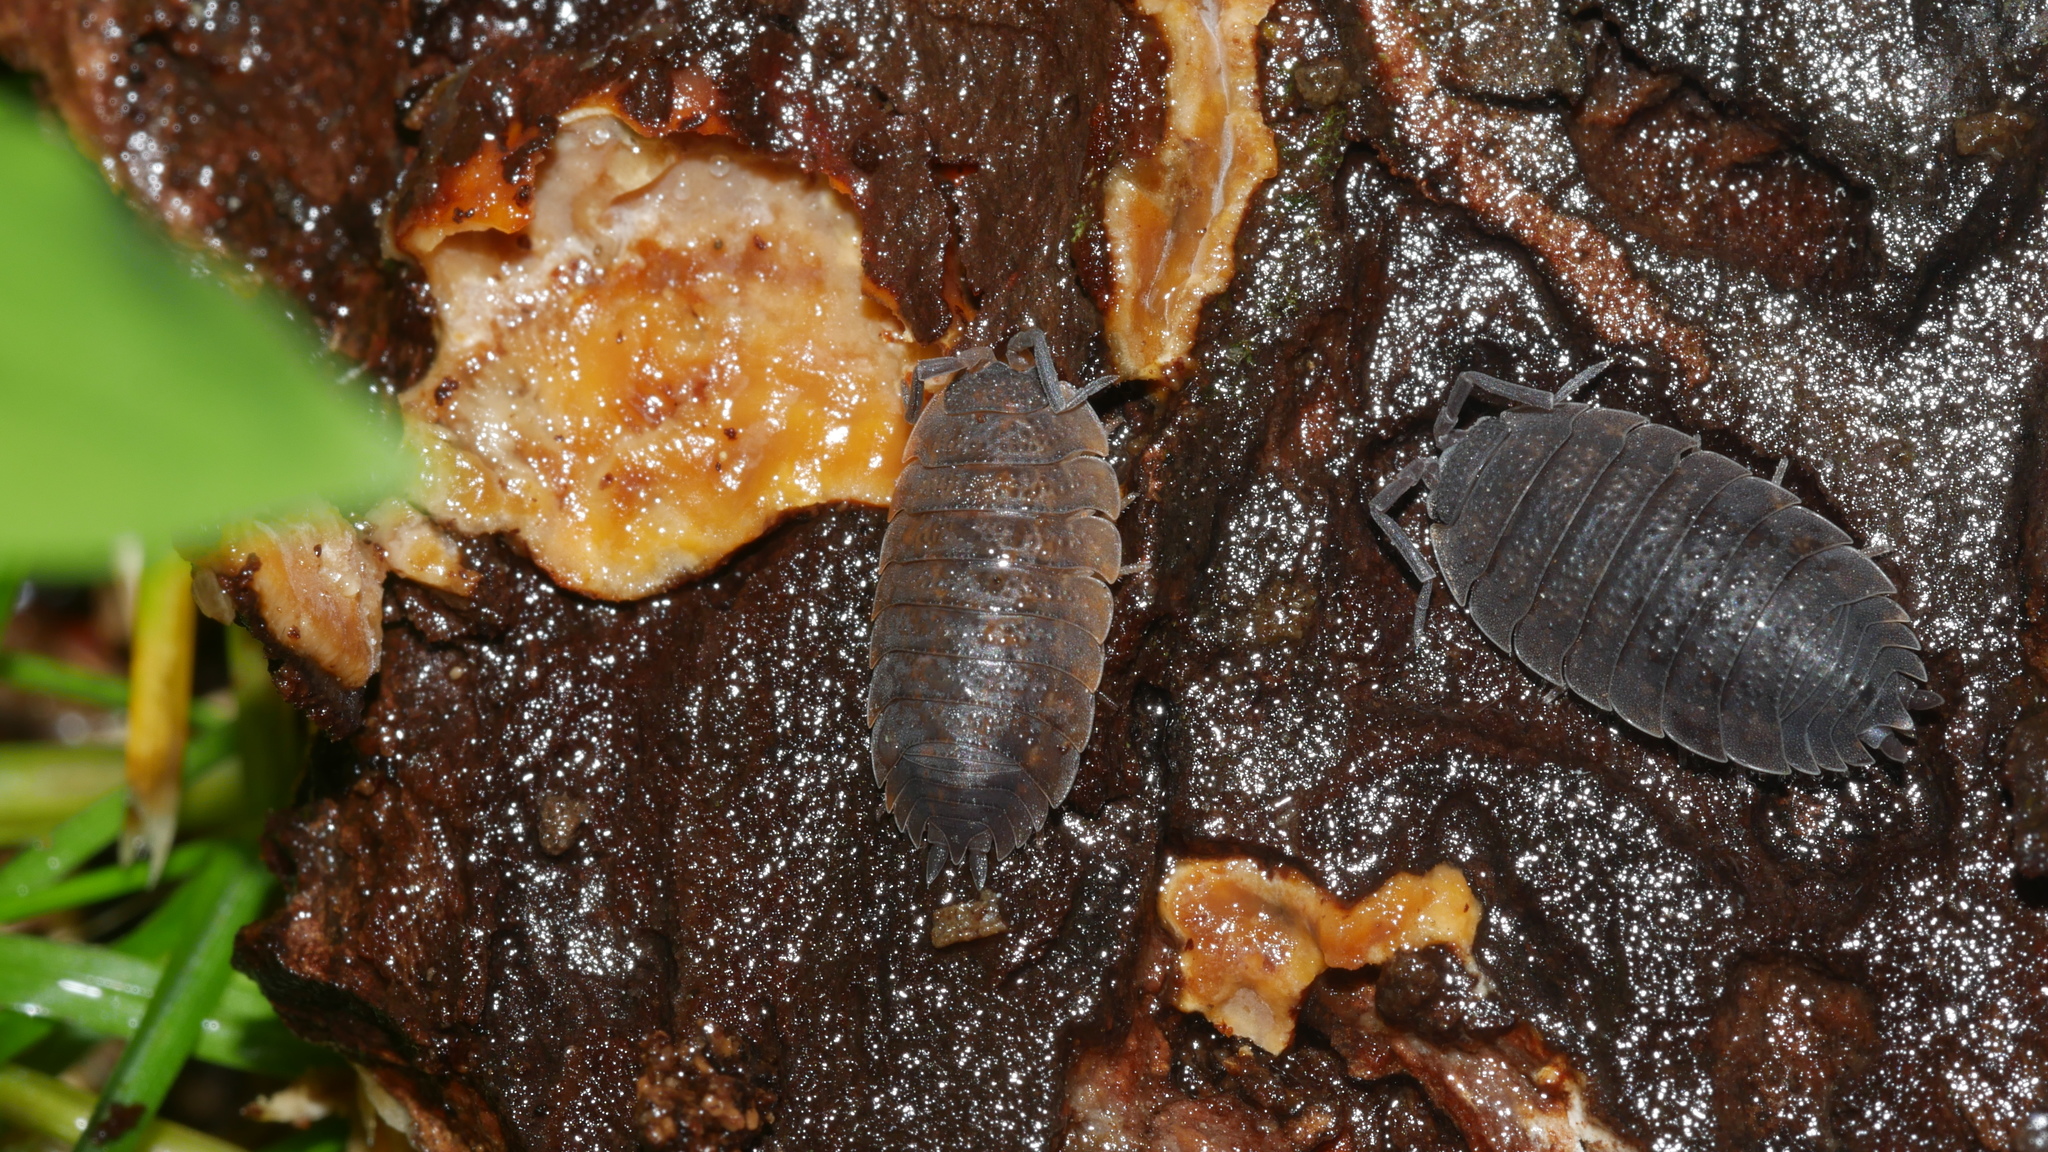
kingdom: Animalia
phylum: Arthropoda
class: Malacostraca
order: Isopoda
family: Porcellionidae
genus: Porcellio
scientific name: Porcellio scaber
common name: Common rough woodlouse
